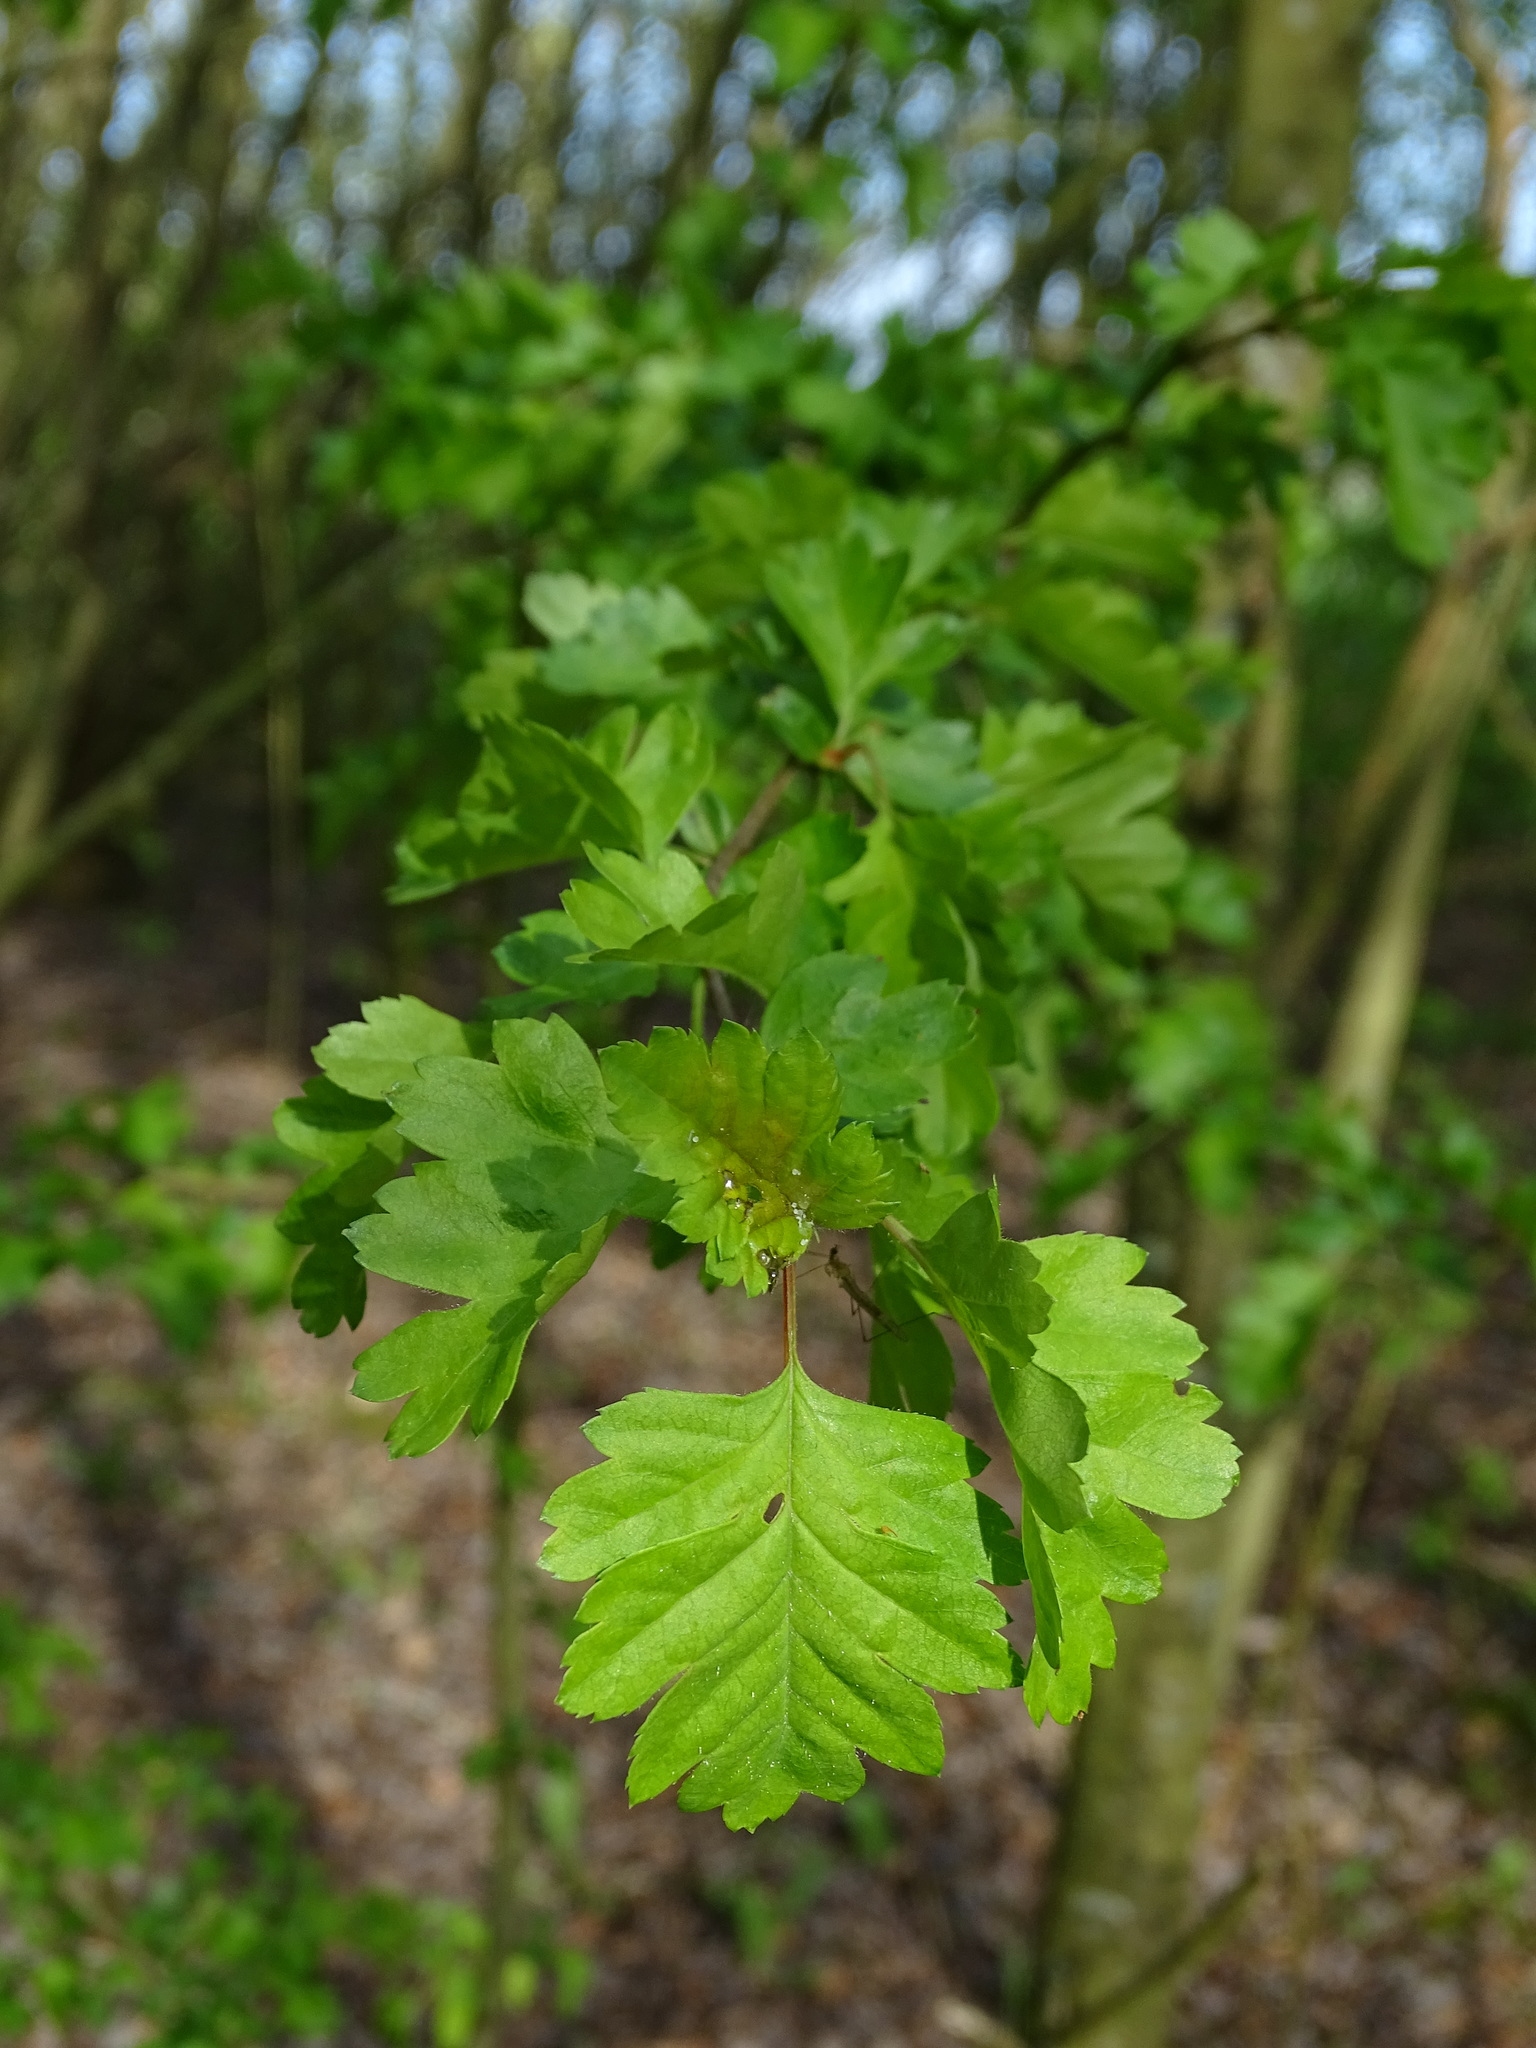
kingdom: Plantae
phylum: Tracheophyta
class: Magnoliopsida
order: Rosales
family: Rosaceae
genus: Crataegus
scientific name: Crataegus monogyna
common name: Hawthorn
